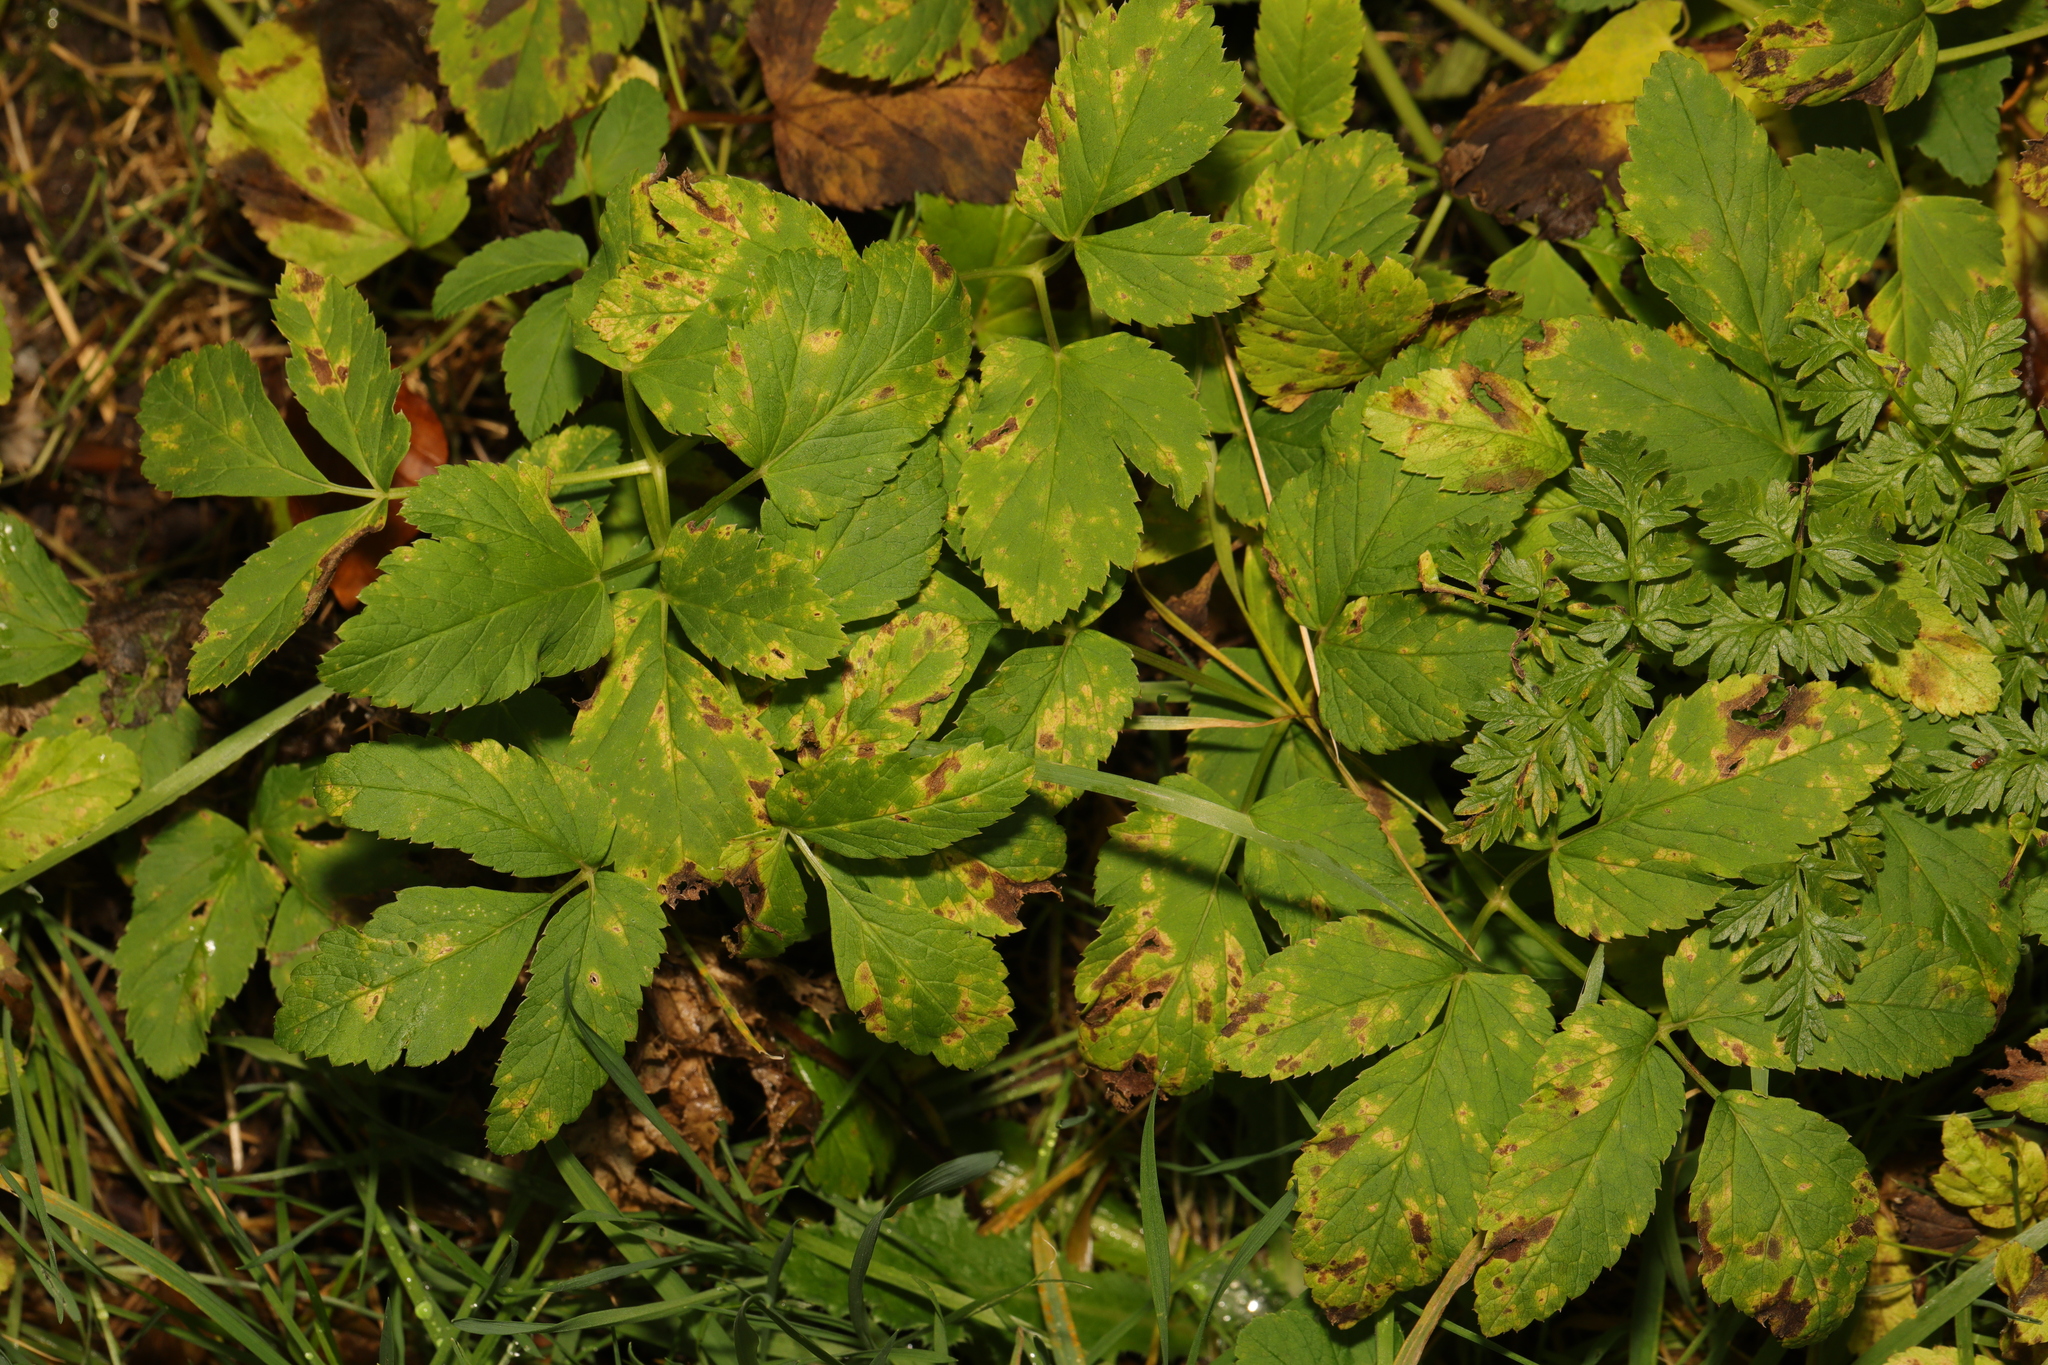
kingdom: Plantae
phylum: Tracheophyta
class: Magnoliopsida
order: Apiales
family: Apiaceae
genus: Aegopodium
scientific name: Aegopodium podagraria
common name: Ground-elder
